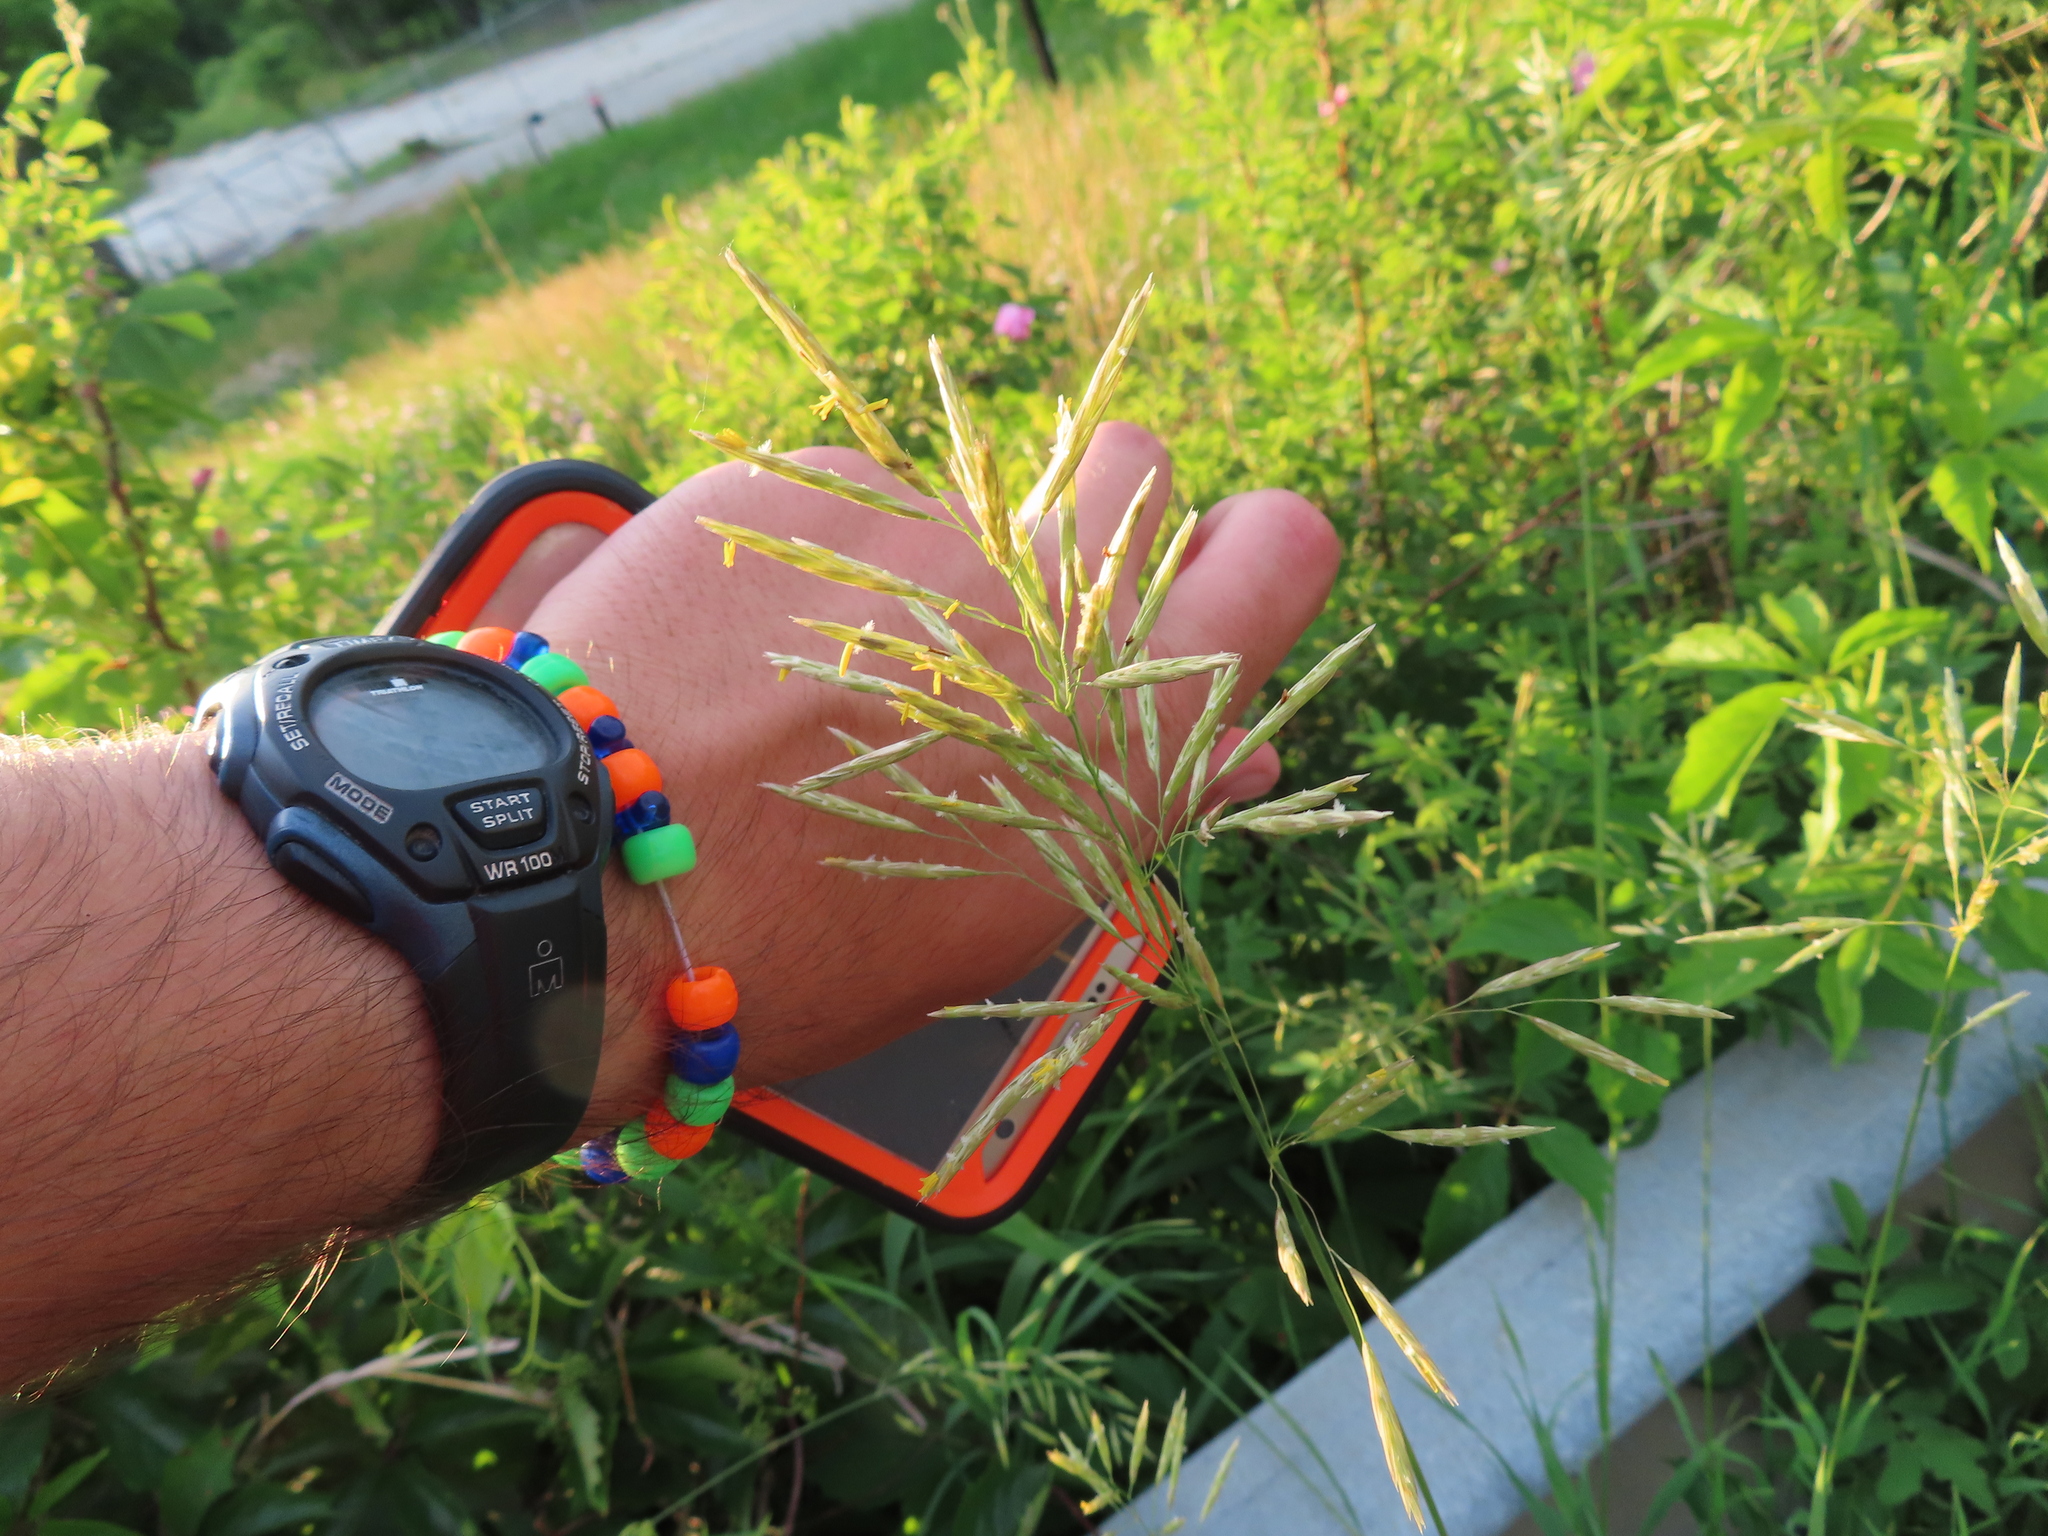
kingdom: Plantae
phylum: Tracheophyta
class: Liliopsida
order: Poales
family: Poaceae
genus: Bromus
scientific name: Bromus inermis
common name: Smooth brome
